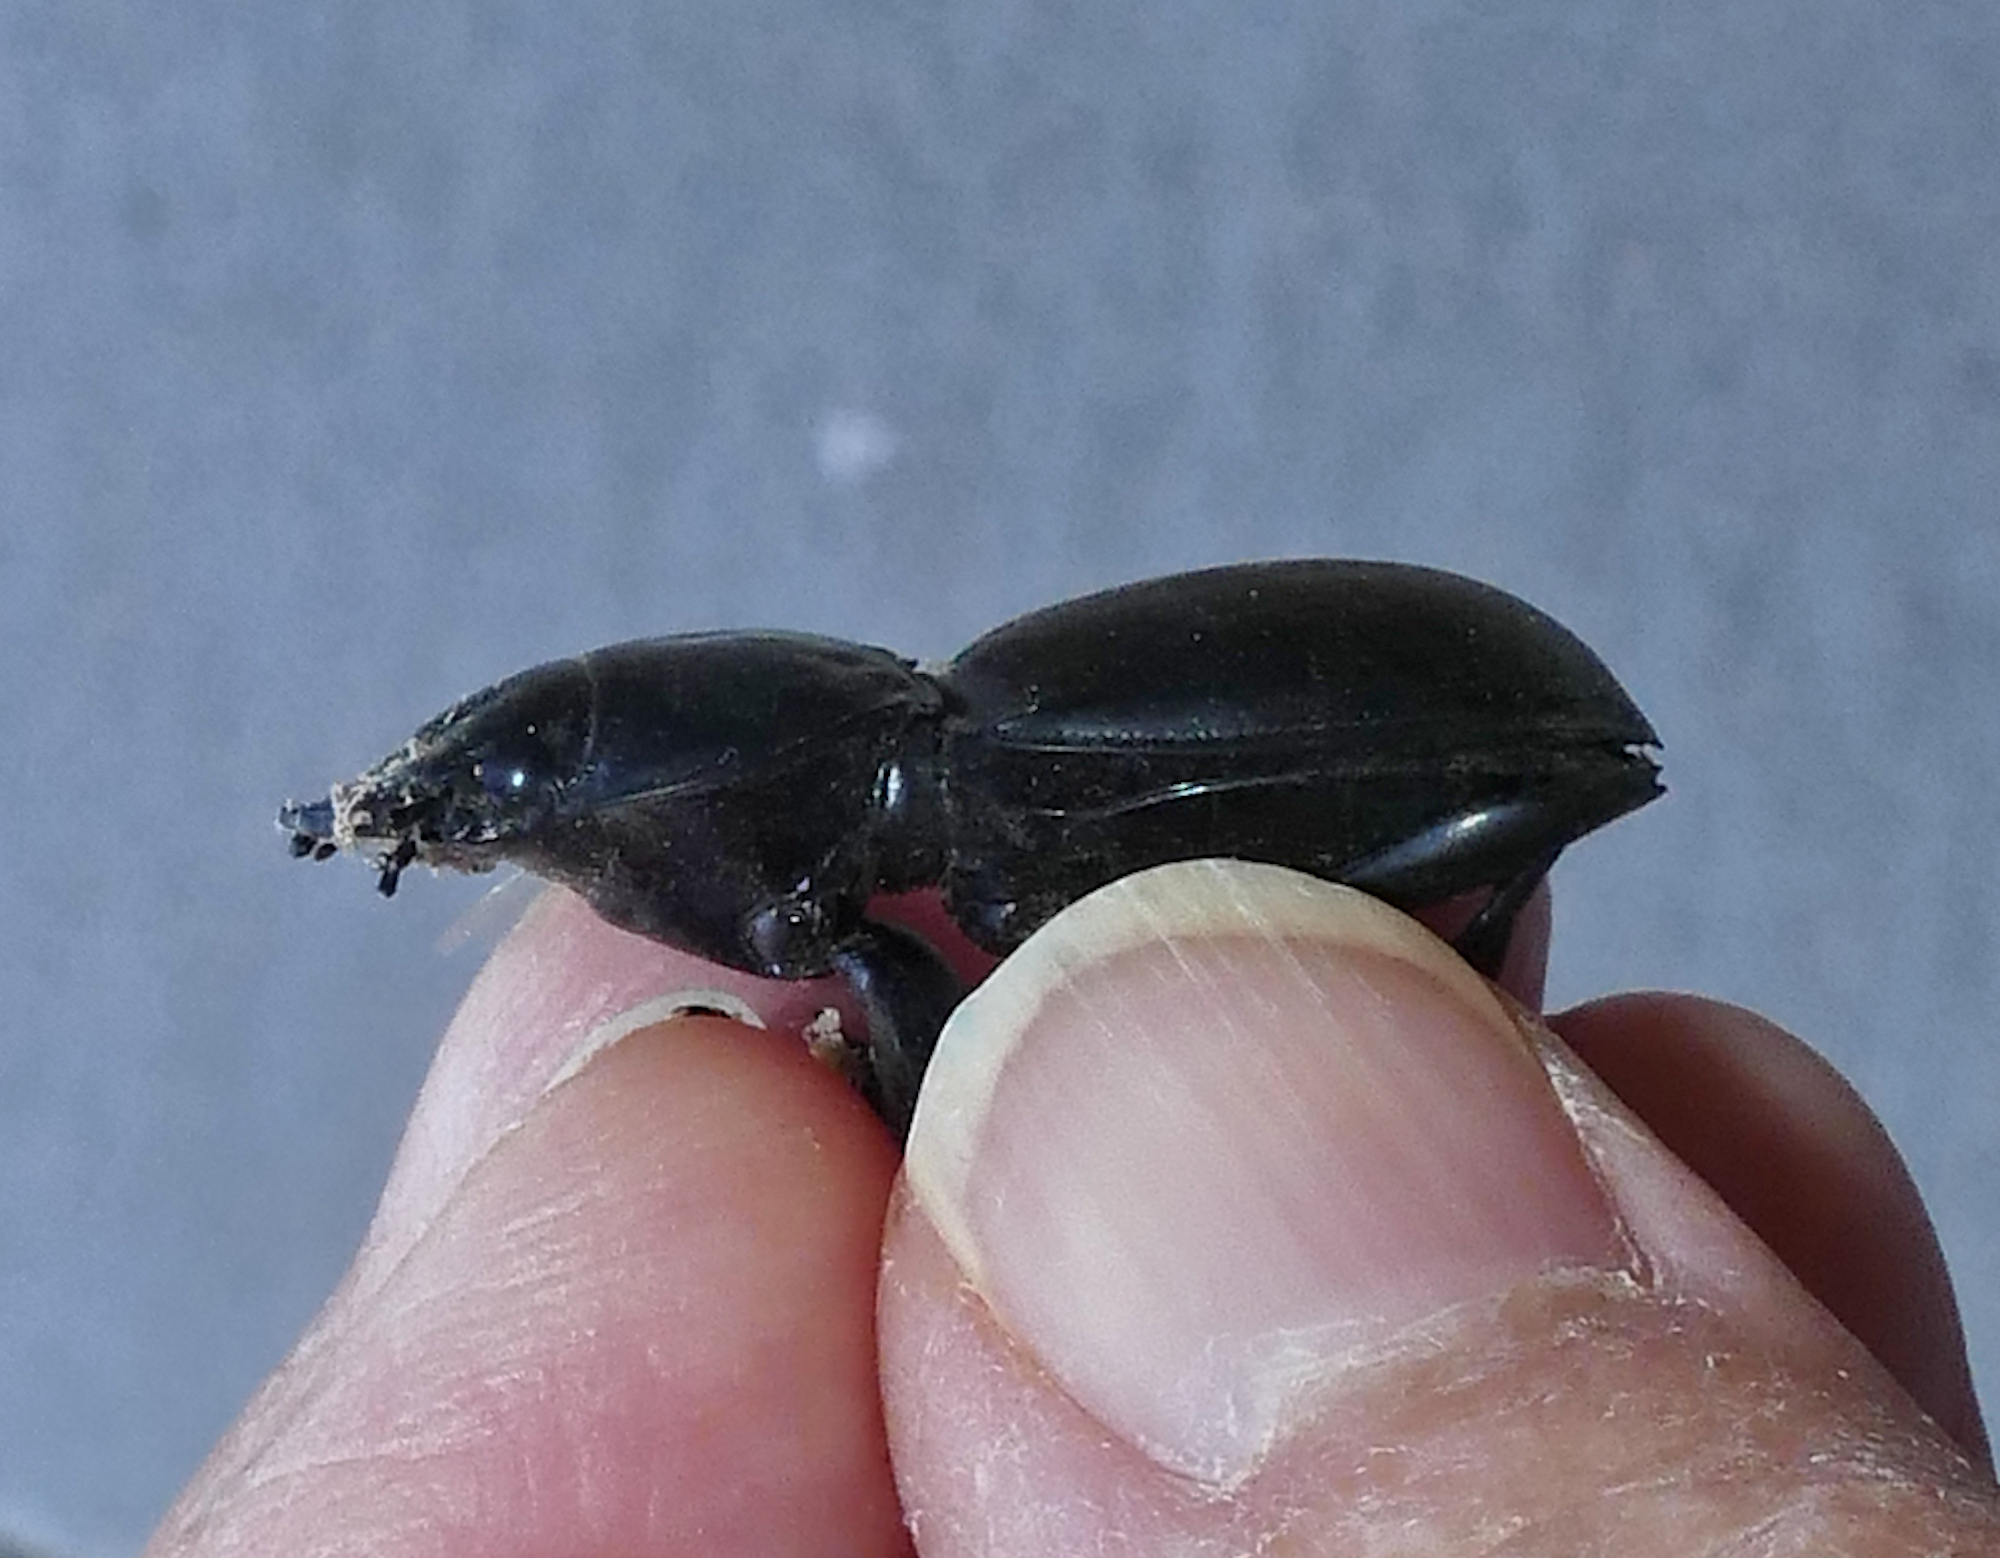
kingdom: Animalia
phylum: Arthropoda
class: Insecta
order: Coleoptera
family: Carabidae
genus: Pasimachus
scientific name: Pasimachus californicus
